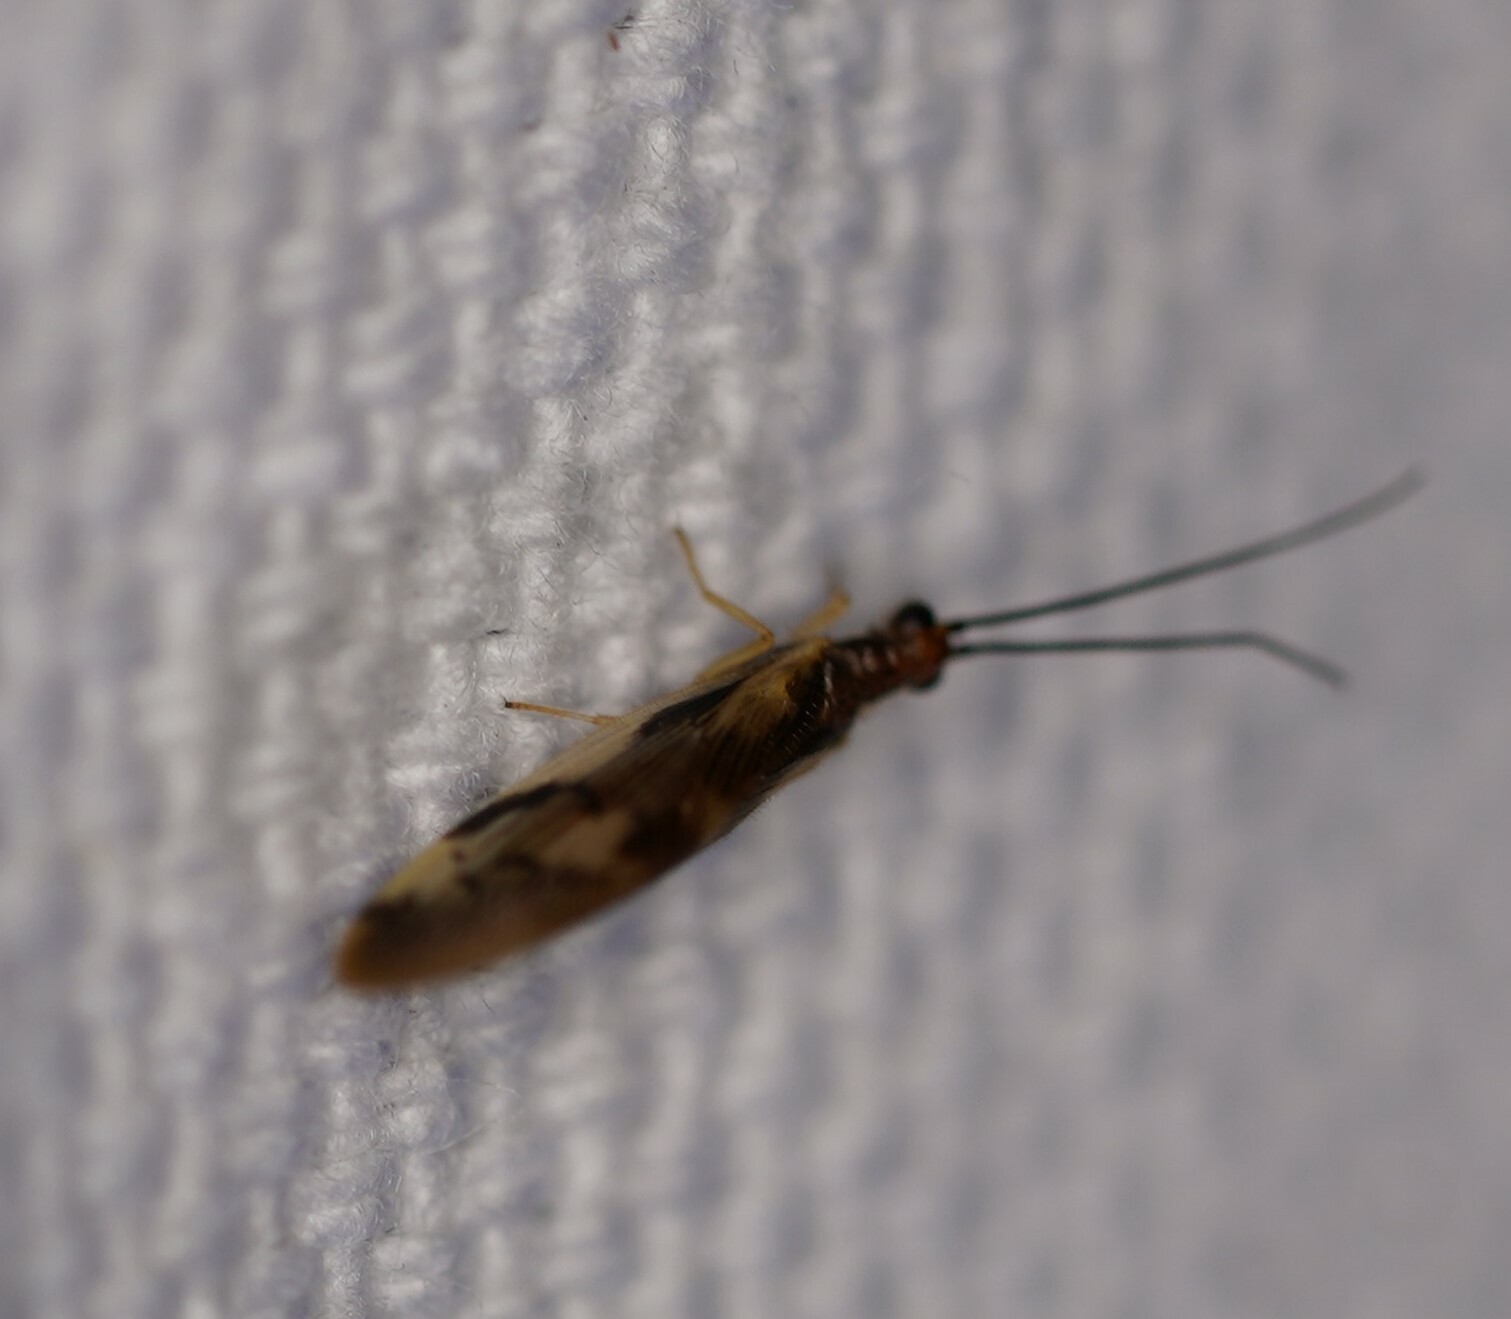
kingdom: Animalia
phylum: Arthropoda
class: Insecta
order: Neuroptera
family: Sisyridae
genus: Climacia
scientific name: Climacia areolaris
